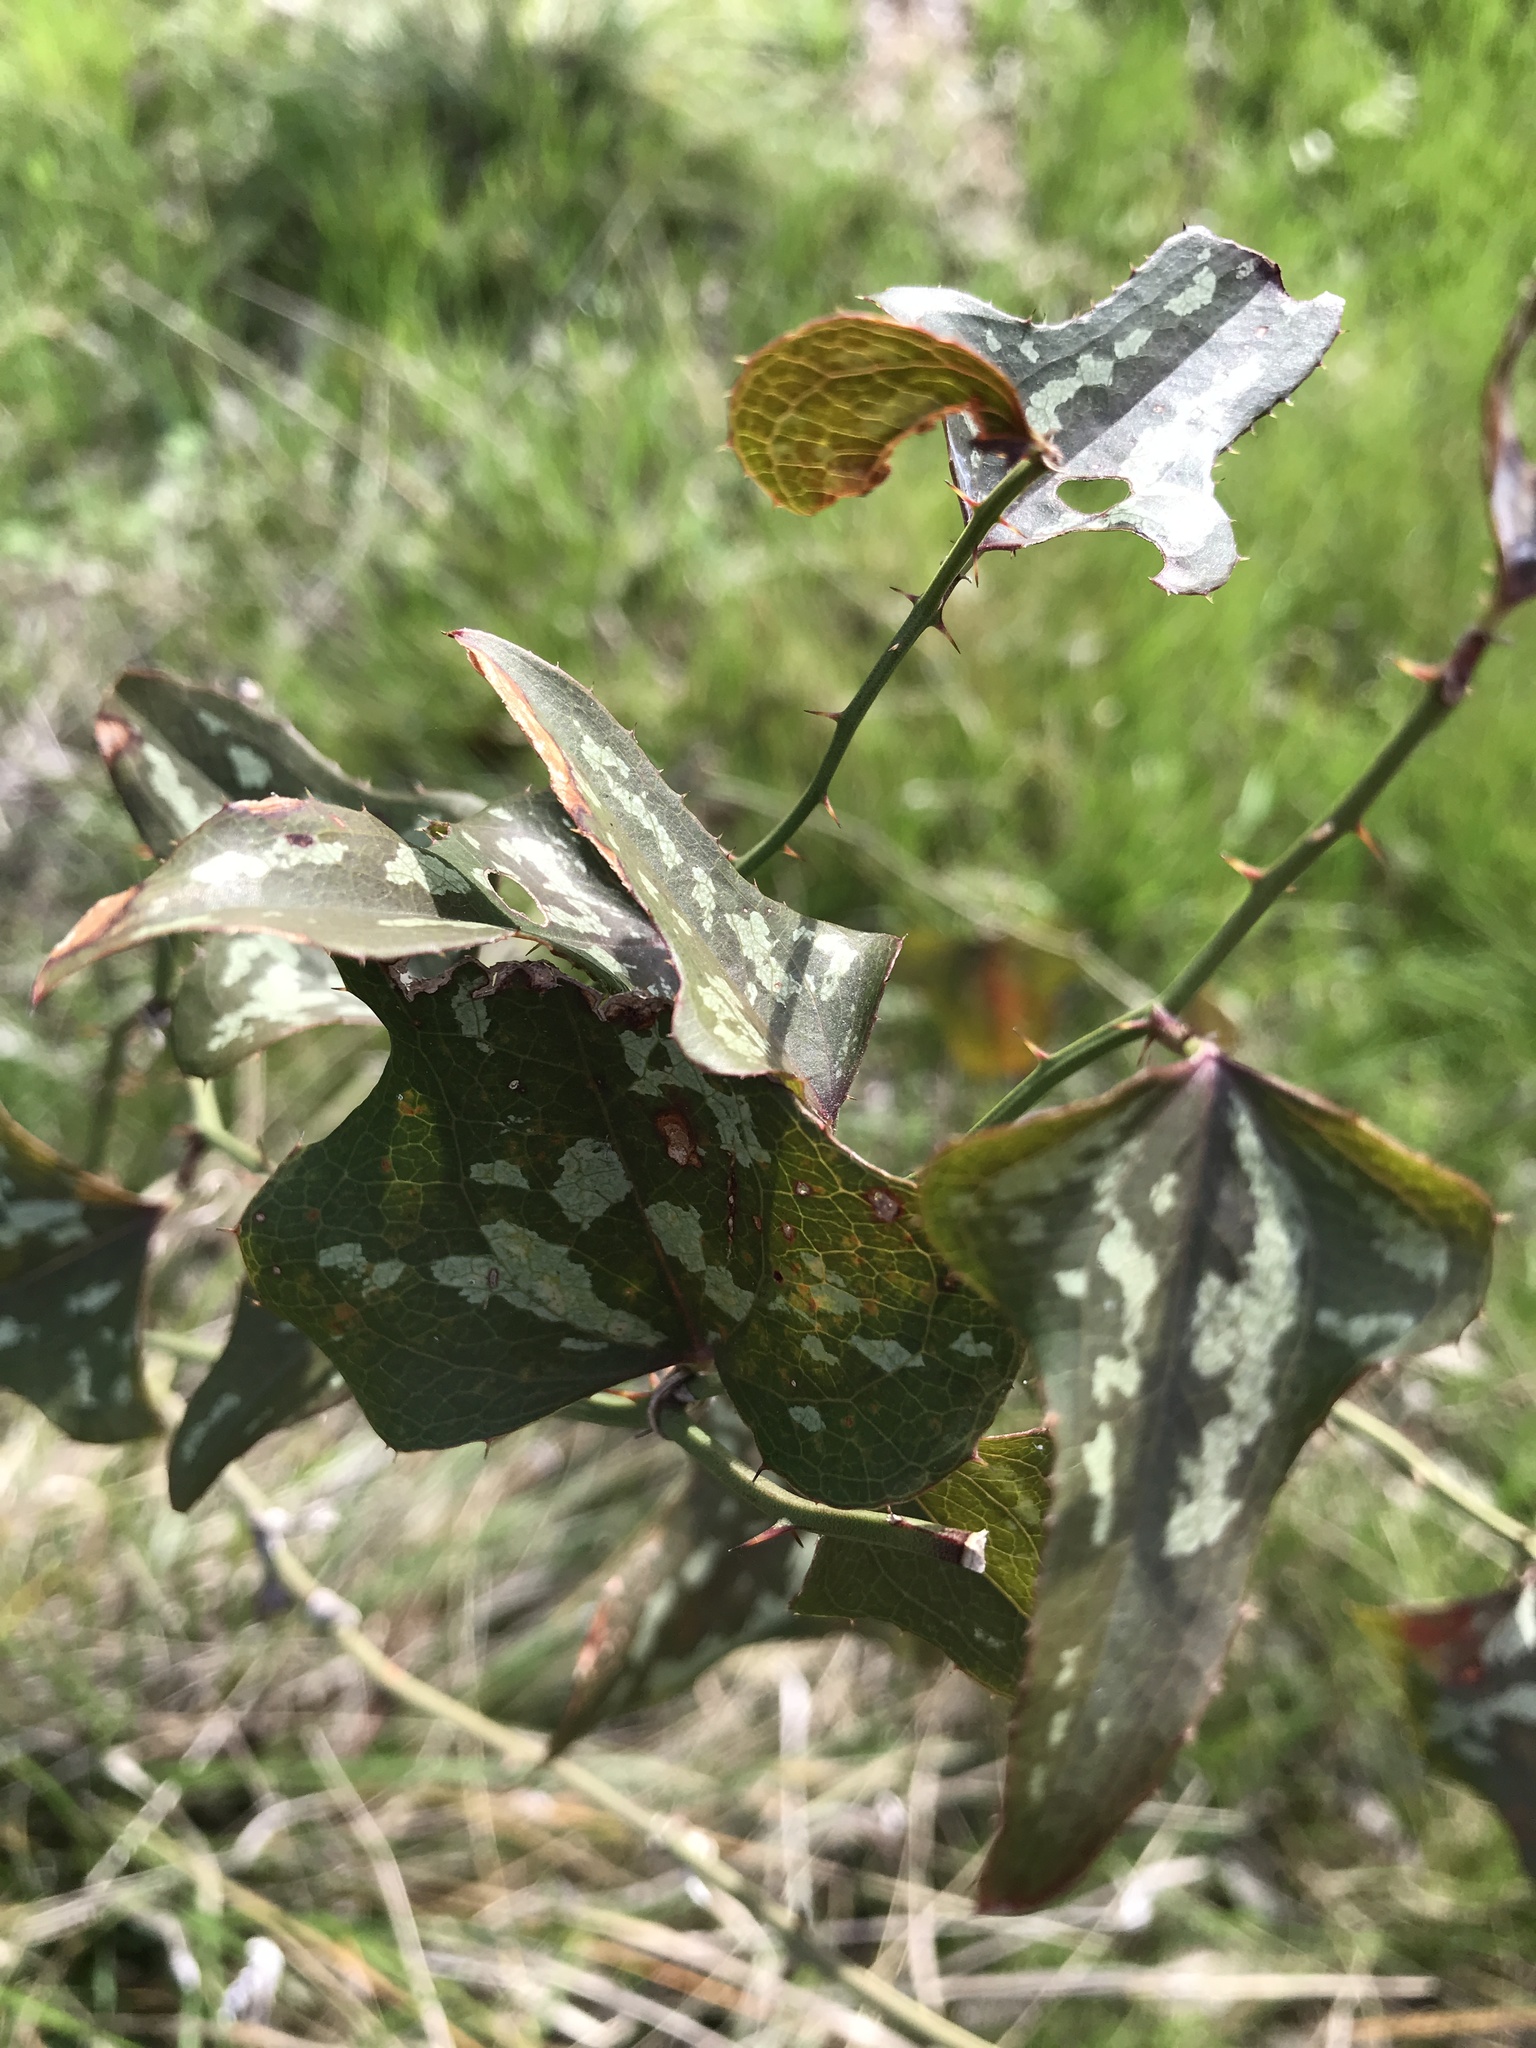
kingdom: Plantae
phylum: Tracheophyta
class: Liliopsida
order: Liliales
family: Smilacaceae
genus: Smilax
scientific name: Smilax bona-nox
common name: Catbrier
